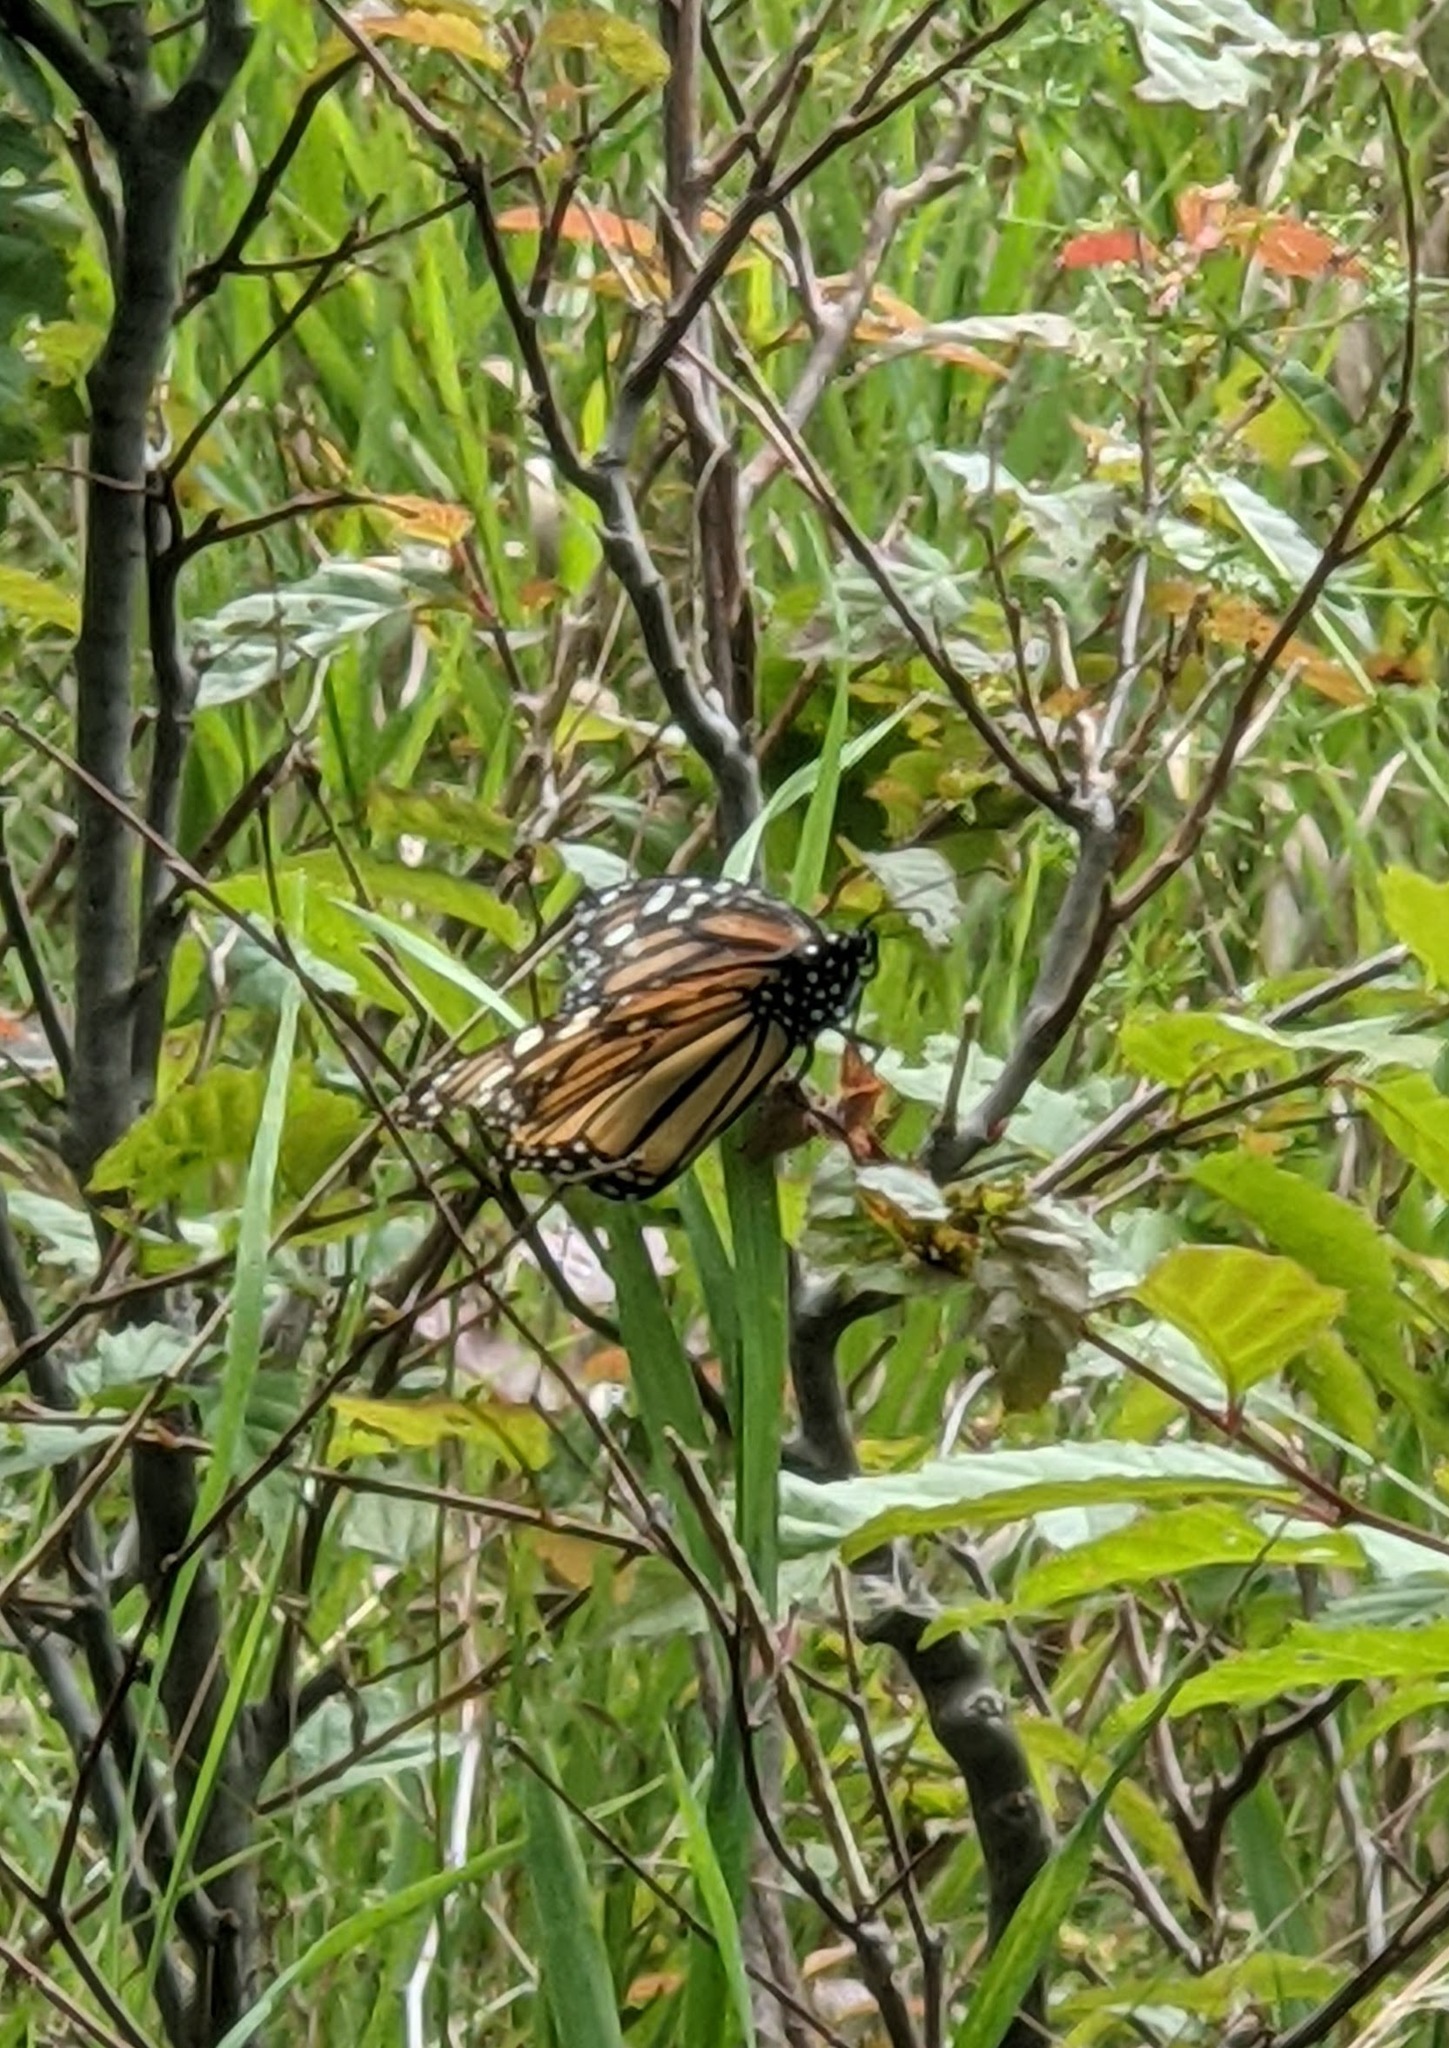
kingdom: Animalia
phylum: Arthropoda
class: Insecta
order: Lepidoptera
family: Nymphalidae
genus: Danaus
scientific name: Danaus plexippus
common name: Monarch
